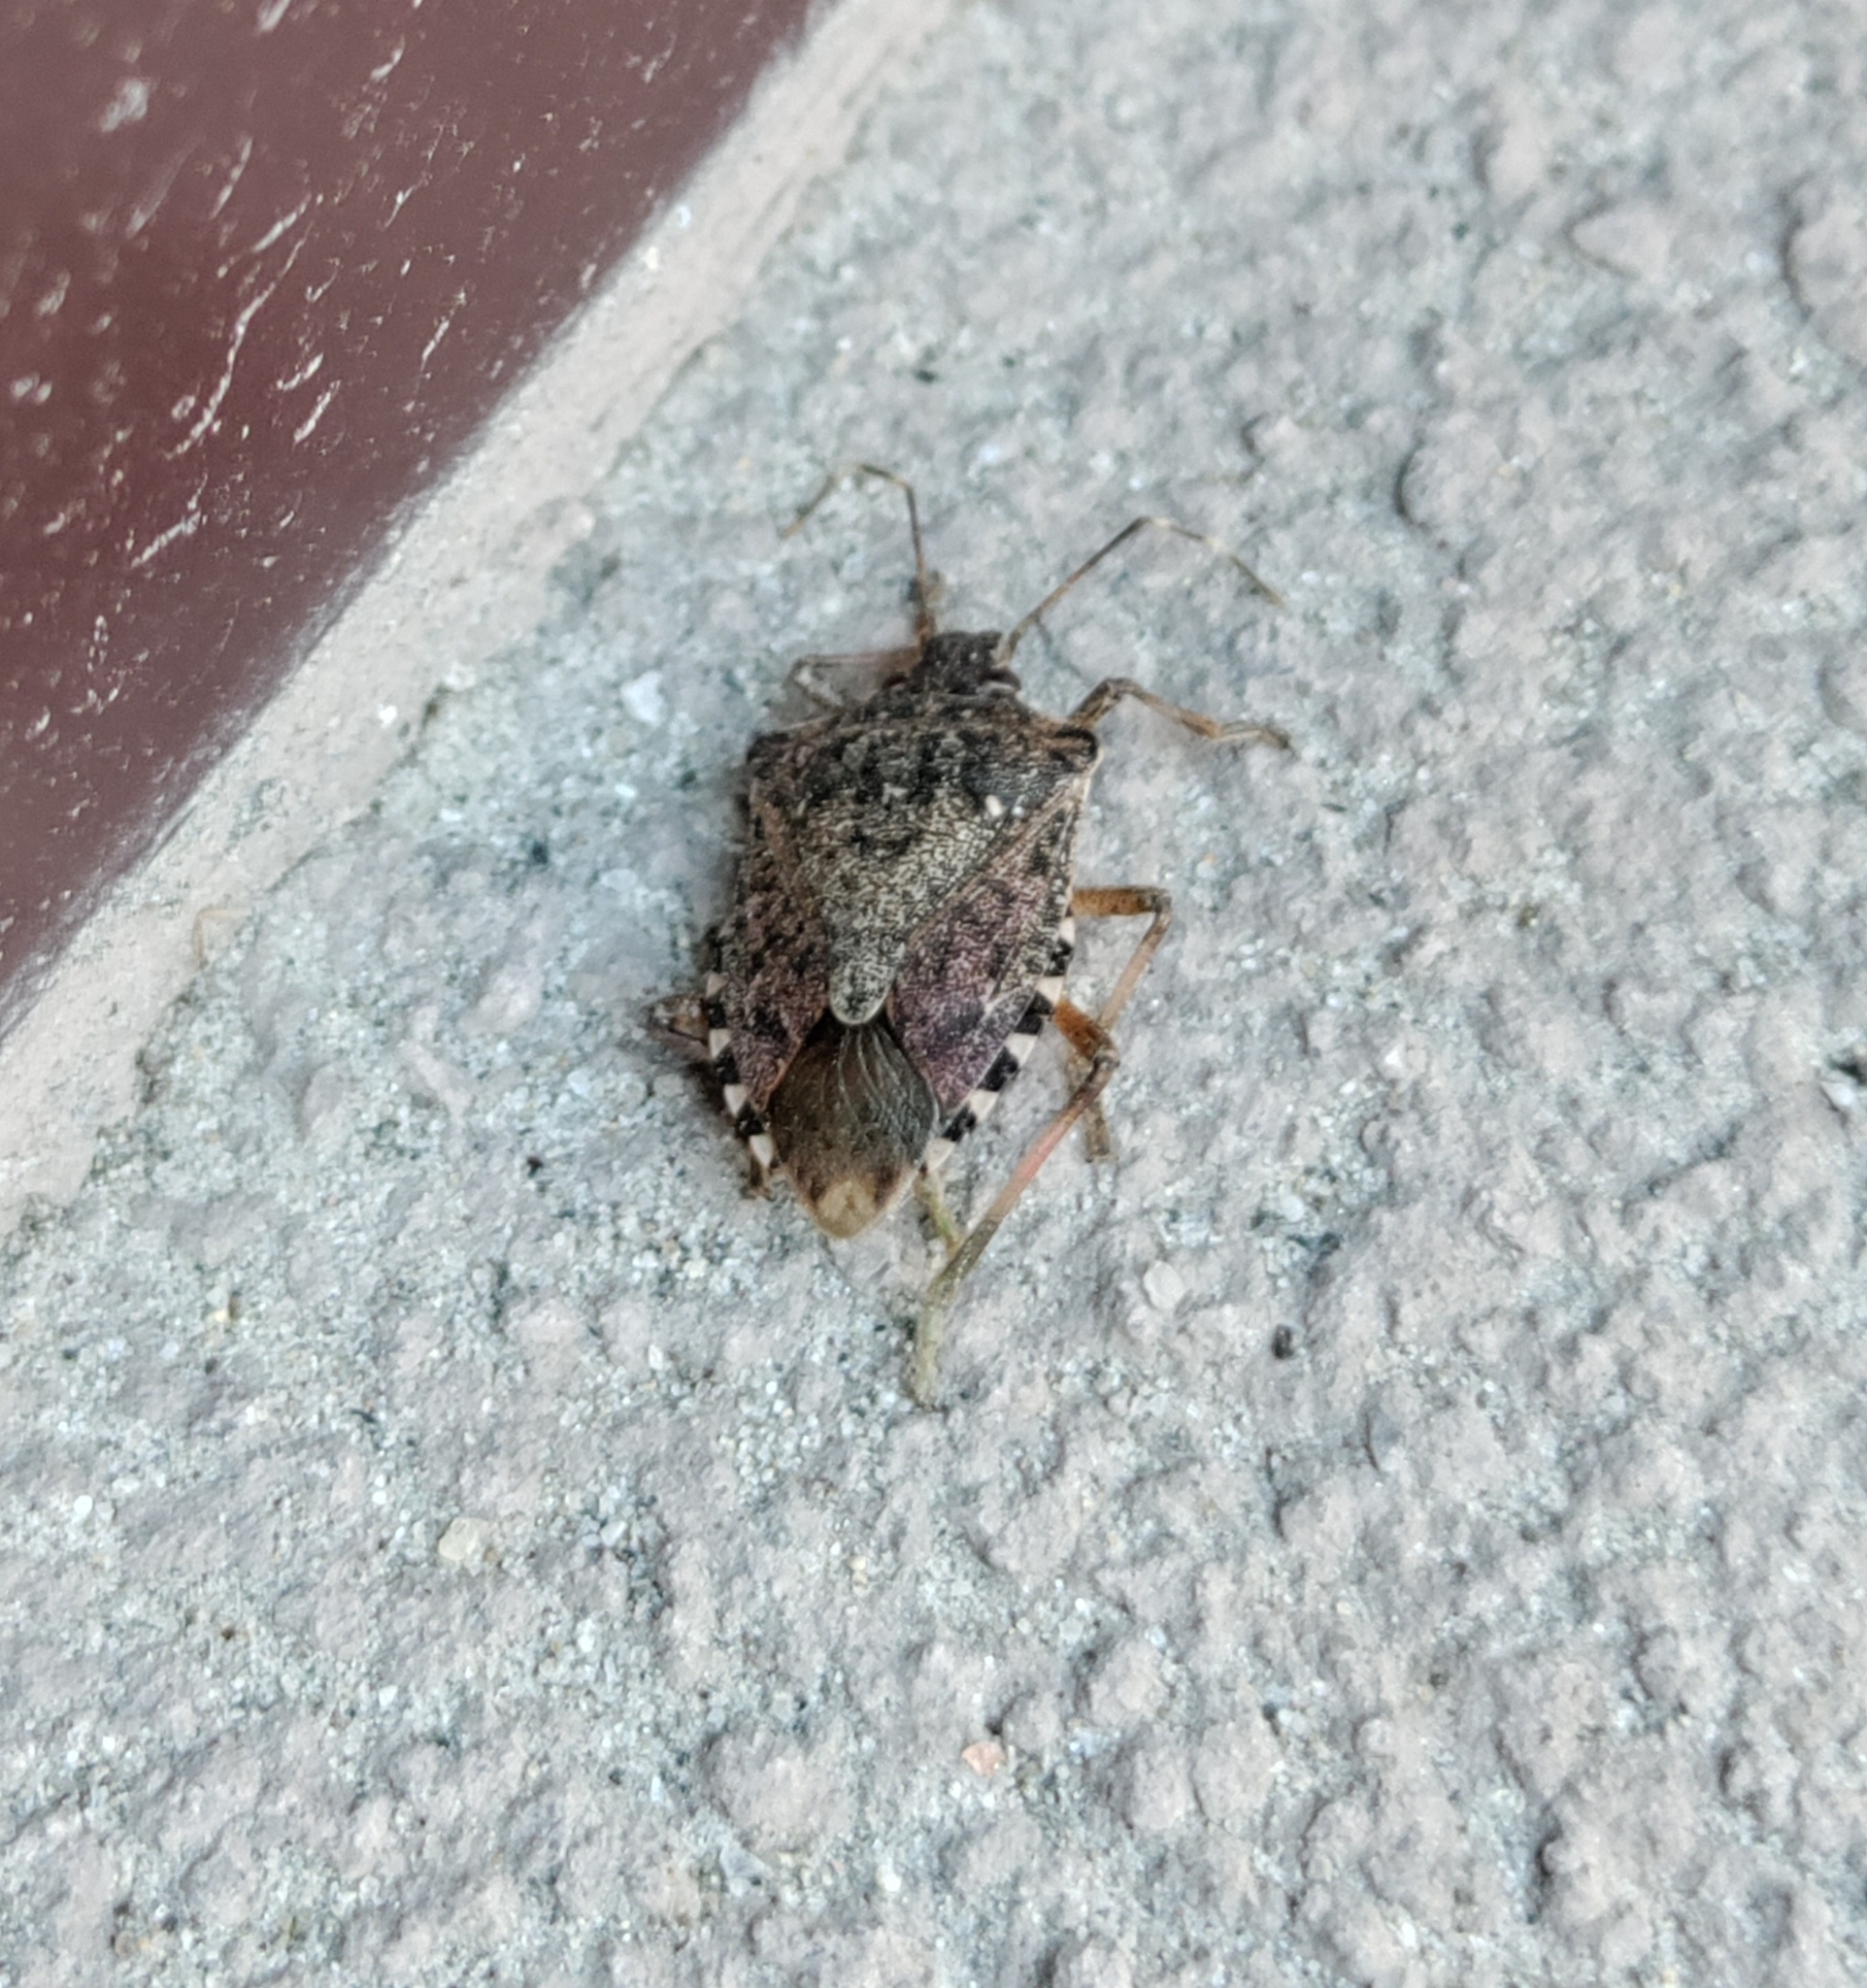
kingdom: Animalia
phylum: Arthropoda
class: Insecta
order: Hemiptera
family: Pentatomidae
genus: Halyomorpha
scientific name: Halyomorpha halys
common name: Brown marmorated stink bug
